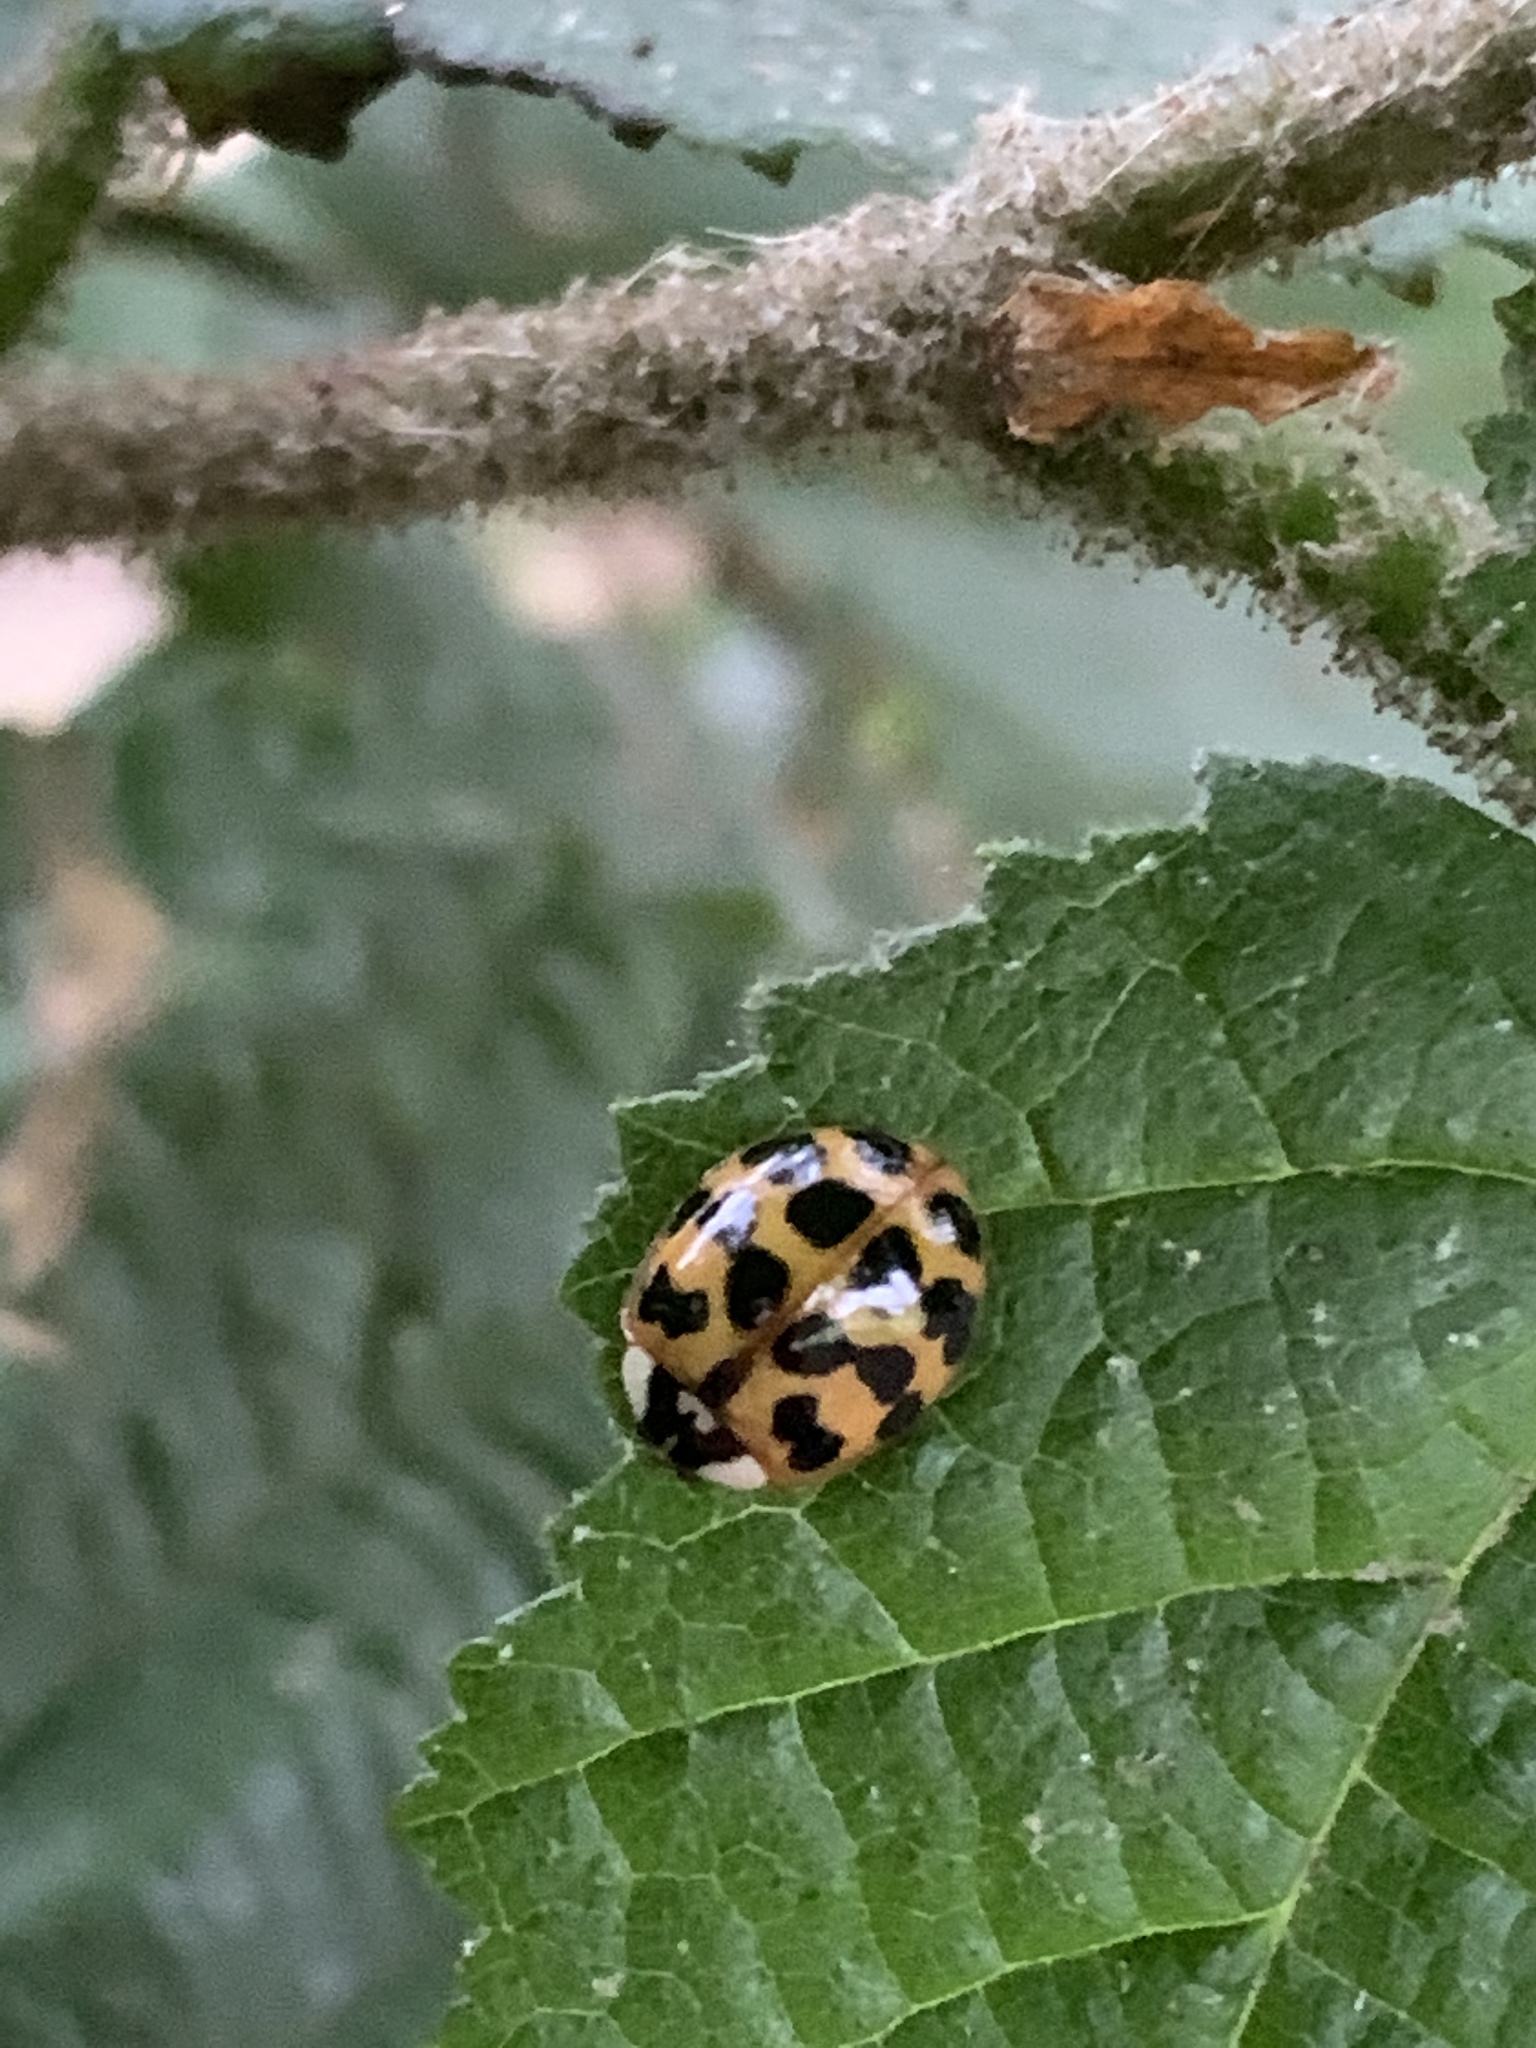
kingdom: Animalia
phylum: Arthropoda
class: Insecta
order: Coleoptera
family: Coccinellidae
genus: Harmonia
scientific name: Harmonia axyridis
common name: Harlequin ladybird
